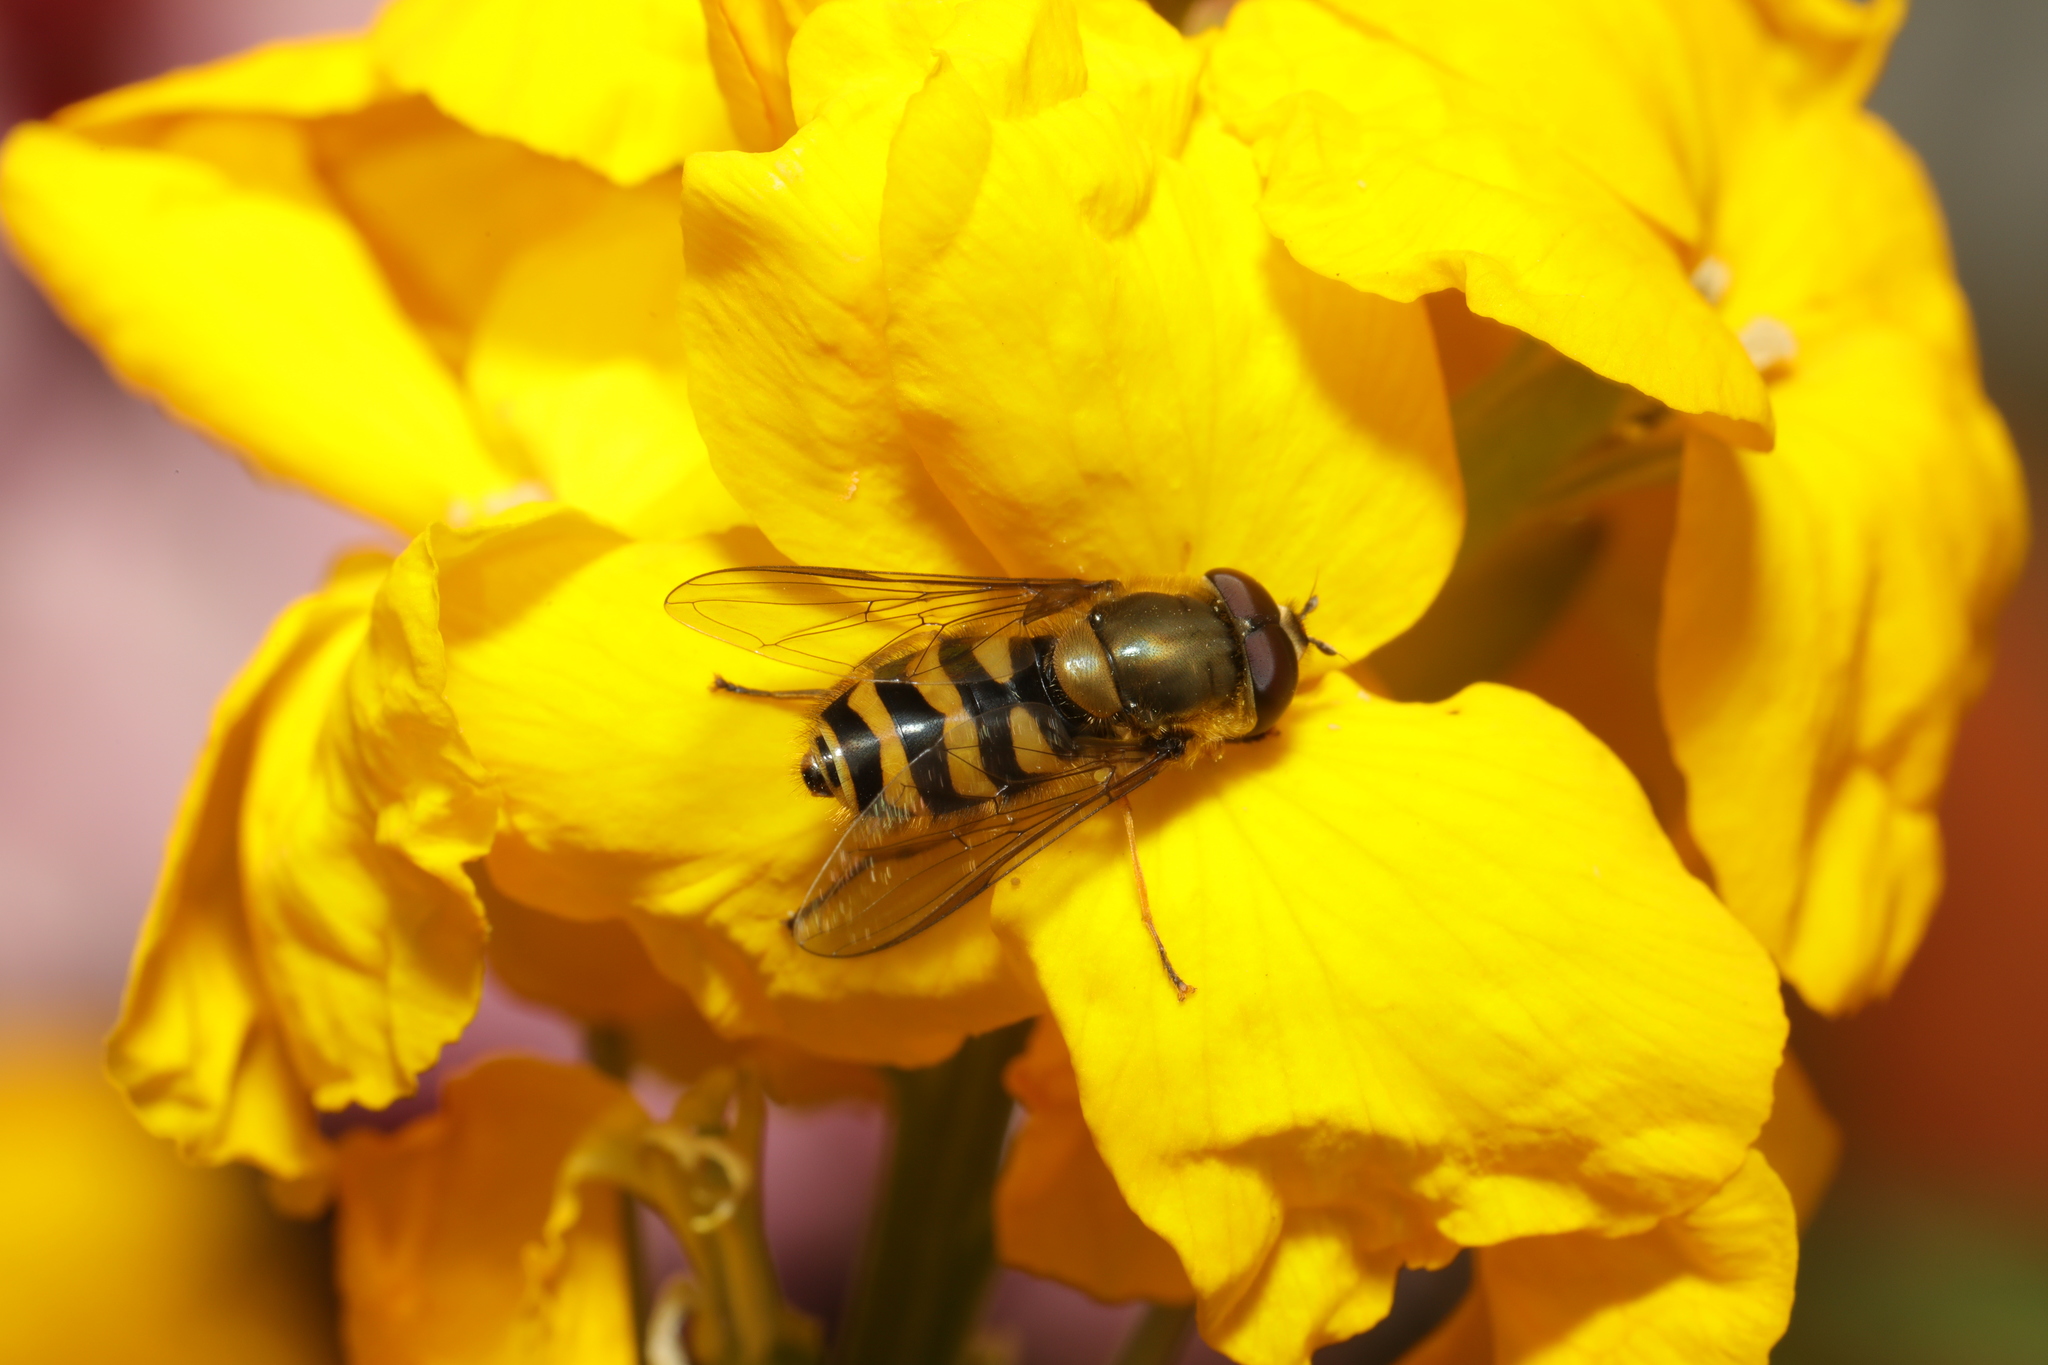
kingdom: Animalia
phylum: Arthropoda
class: Insecta
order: Diptera
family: Syrphidae
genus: Syrphus
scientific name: Syrphus
